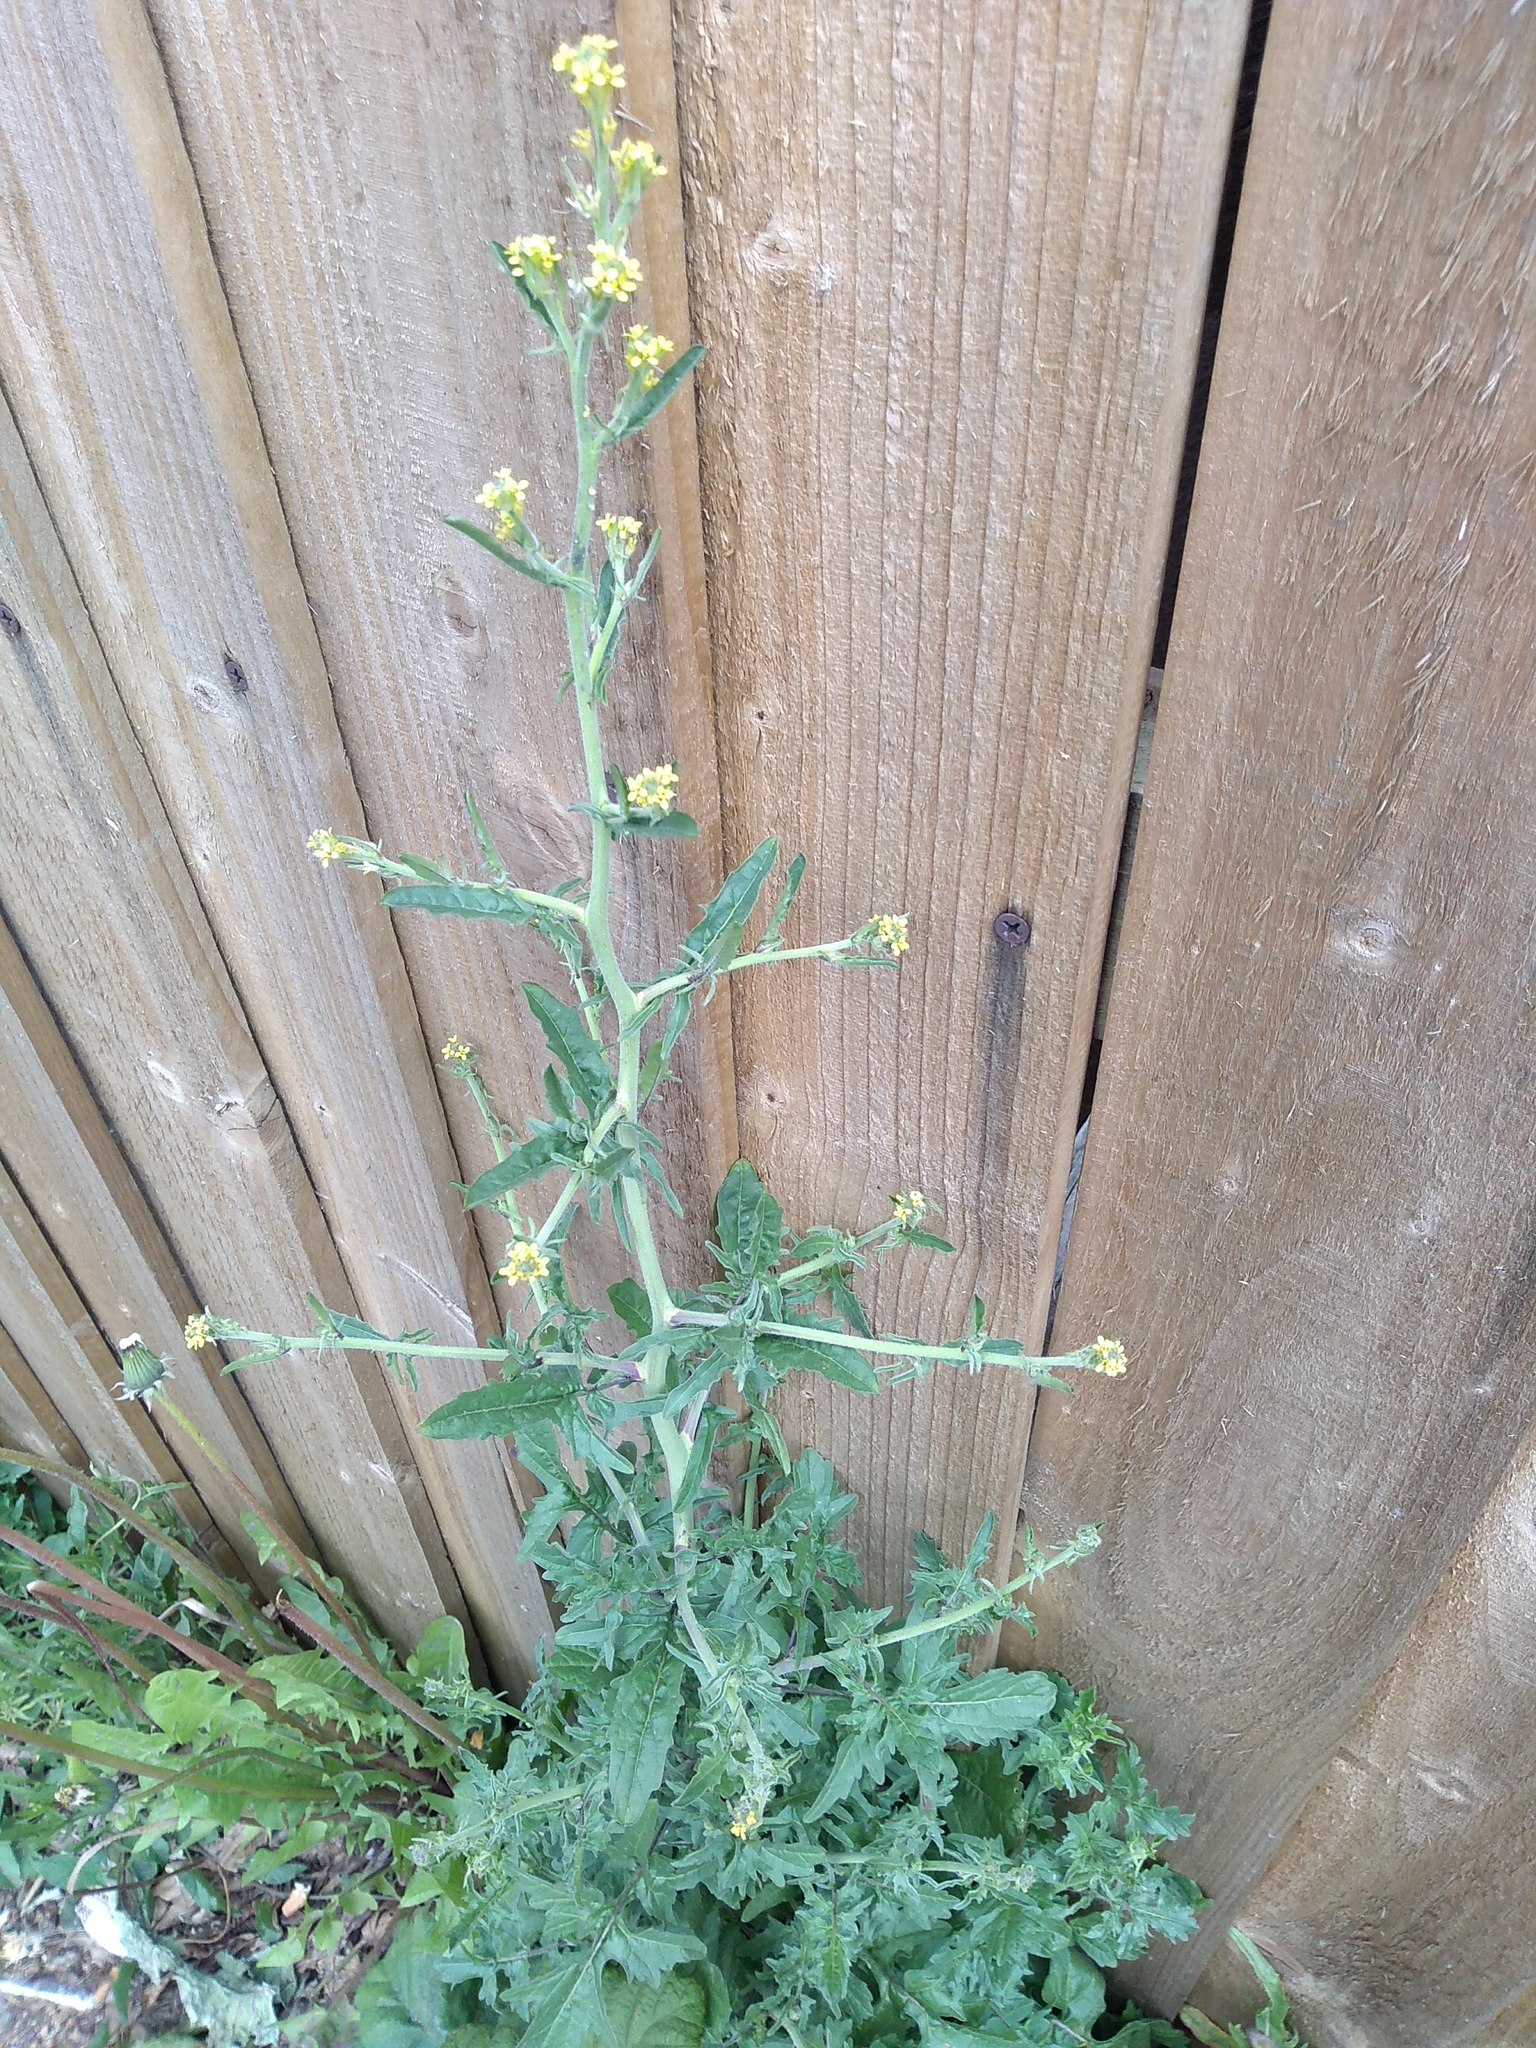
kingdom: Plantae
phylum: Tracheophyta
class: Magnoliopsida
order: Brassicales
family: Brassicaceae
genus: Sisymbrium
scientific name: Sisymbrium officinale
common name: Hedge mustard
